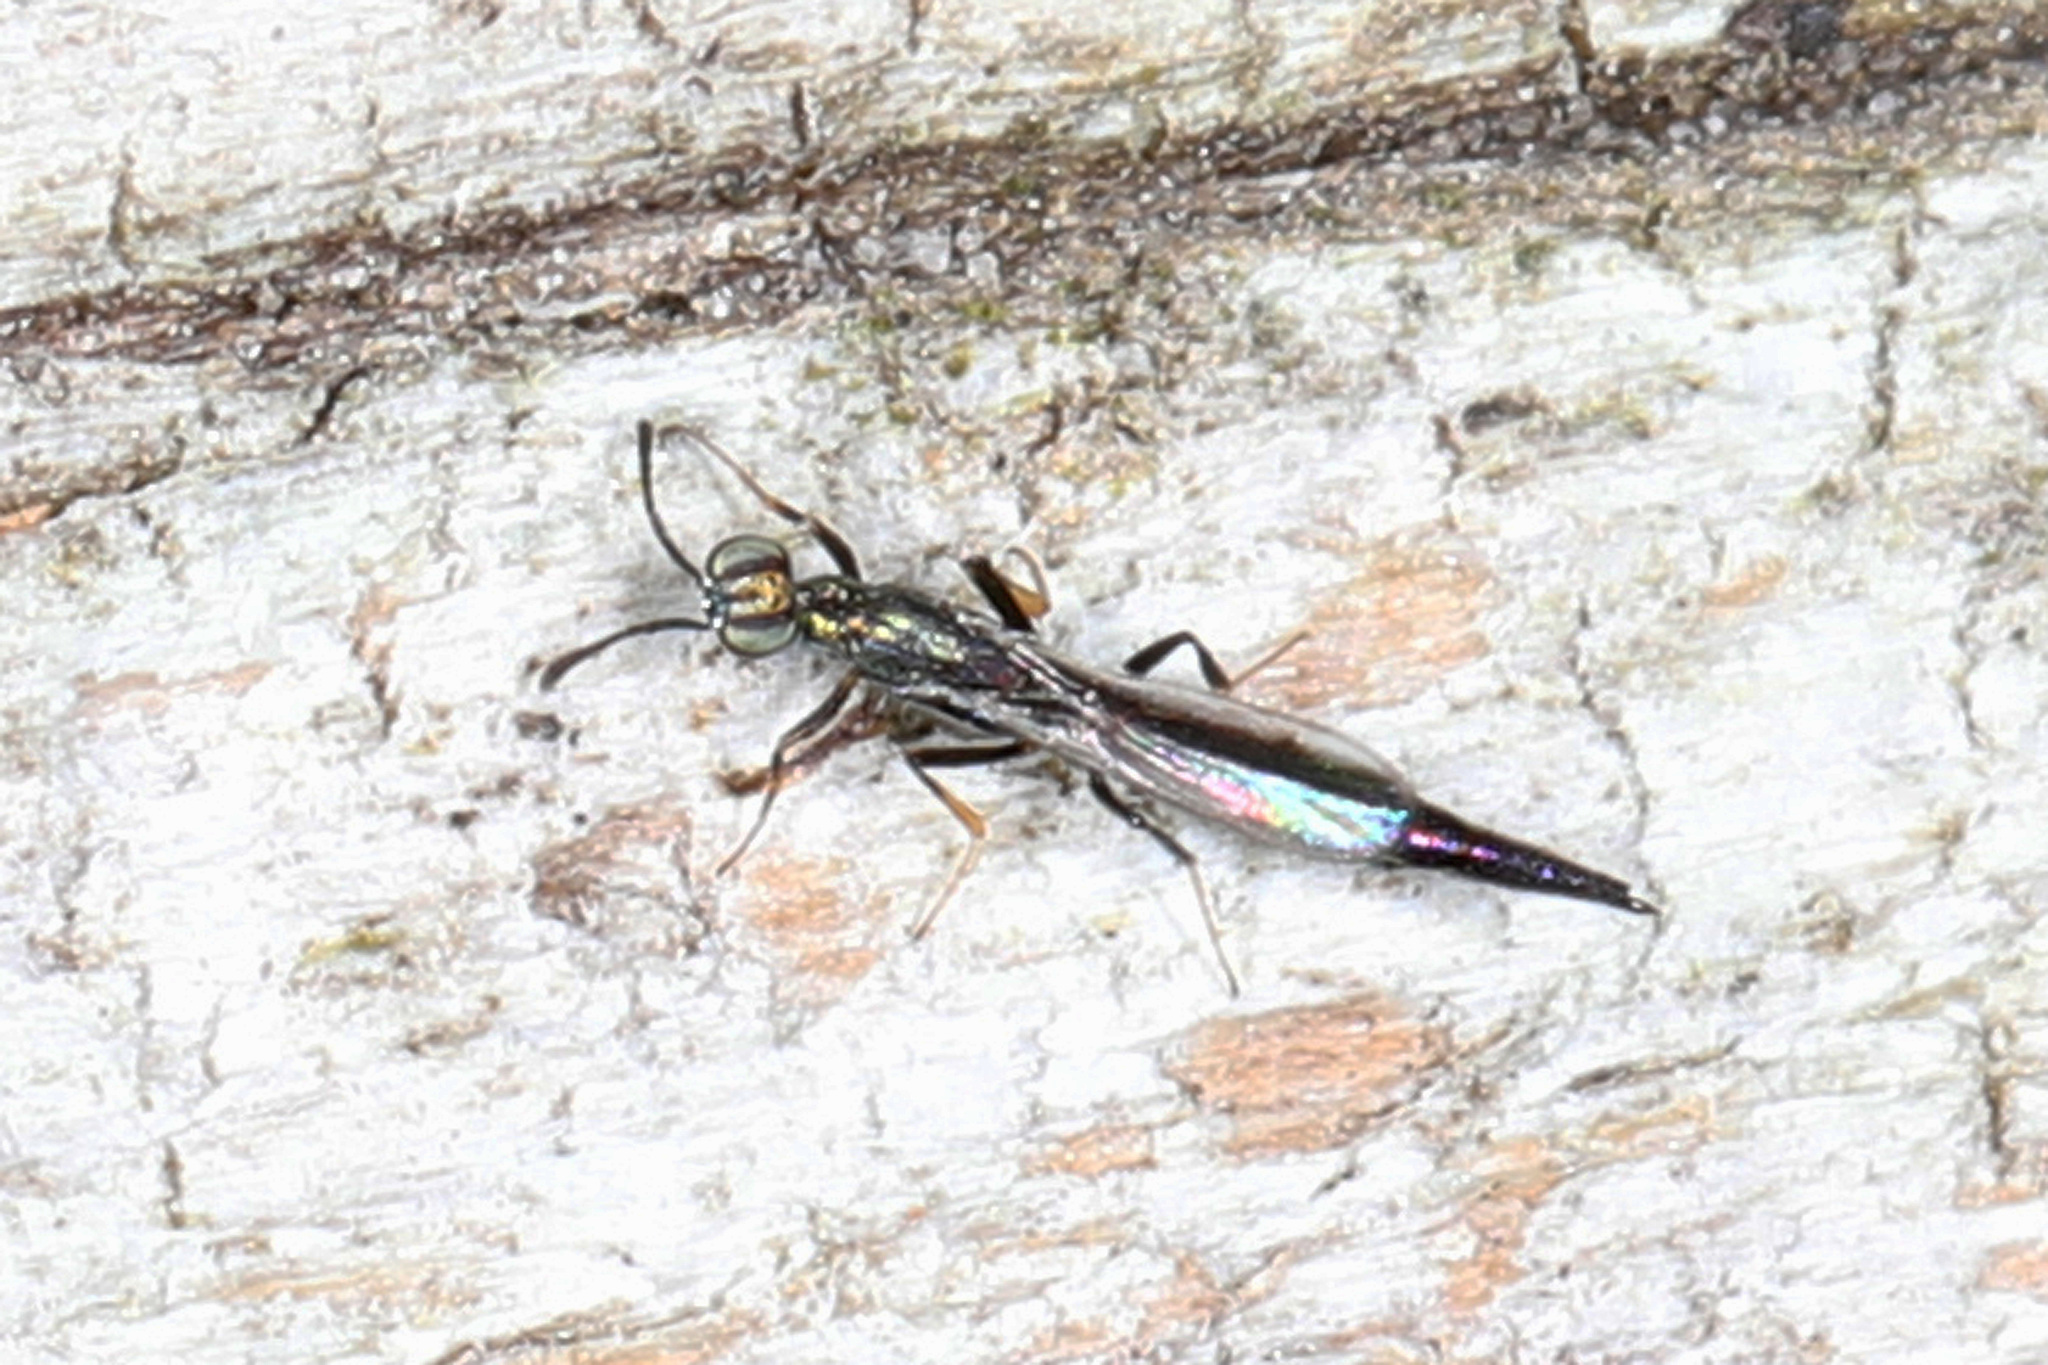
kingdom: Animalia
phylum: Arthropoda
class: Insecta
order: Hymenoptera
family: Eupelmidae
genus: Brasema
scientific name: Brasema rhadinosa
